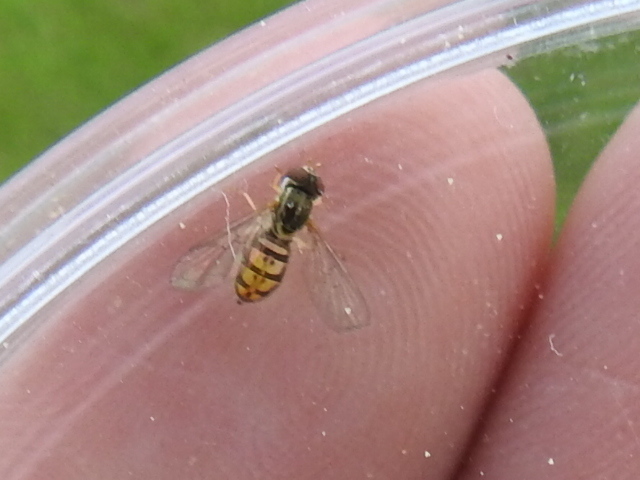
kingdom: Animalia
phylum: Arthropoda
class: Insecta
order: Diptera
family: Syrphidae
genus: Toxomerus
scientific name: Toxomerus marginatus
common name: Syrphid fly
